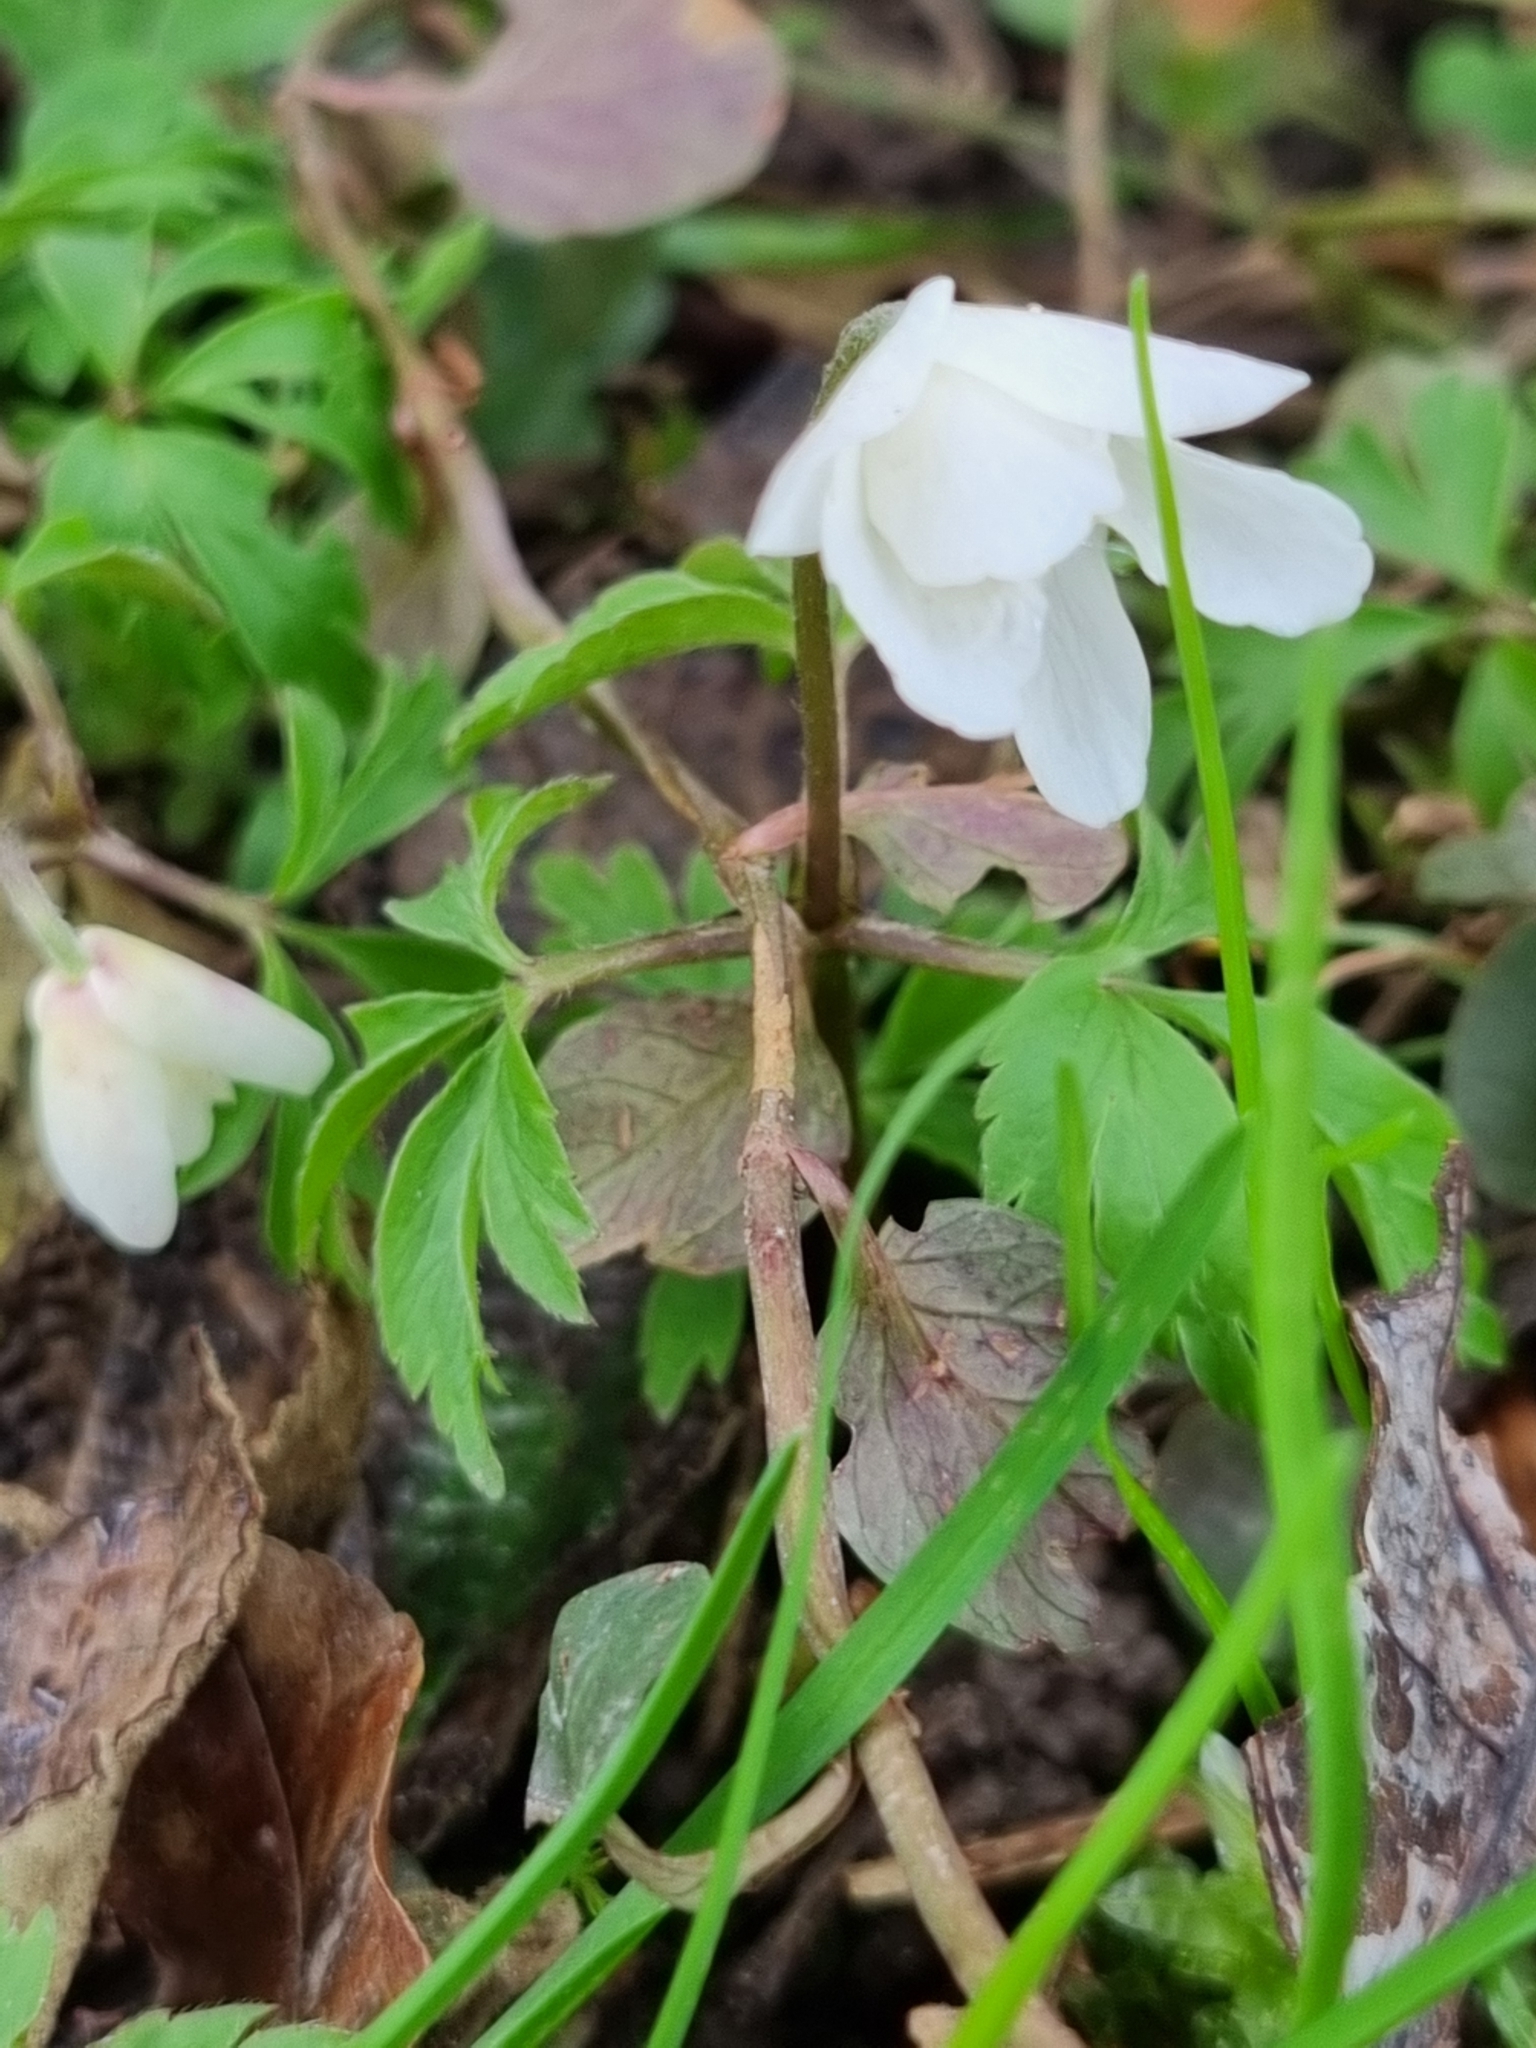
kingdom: Plantae
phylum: Tracheophyta
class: Magnoliopsida
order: Ranunculales
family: Ranunculaceae
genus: Anemone
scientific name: Anemone nemorosa
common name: Wood anemone
